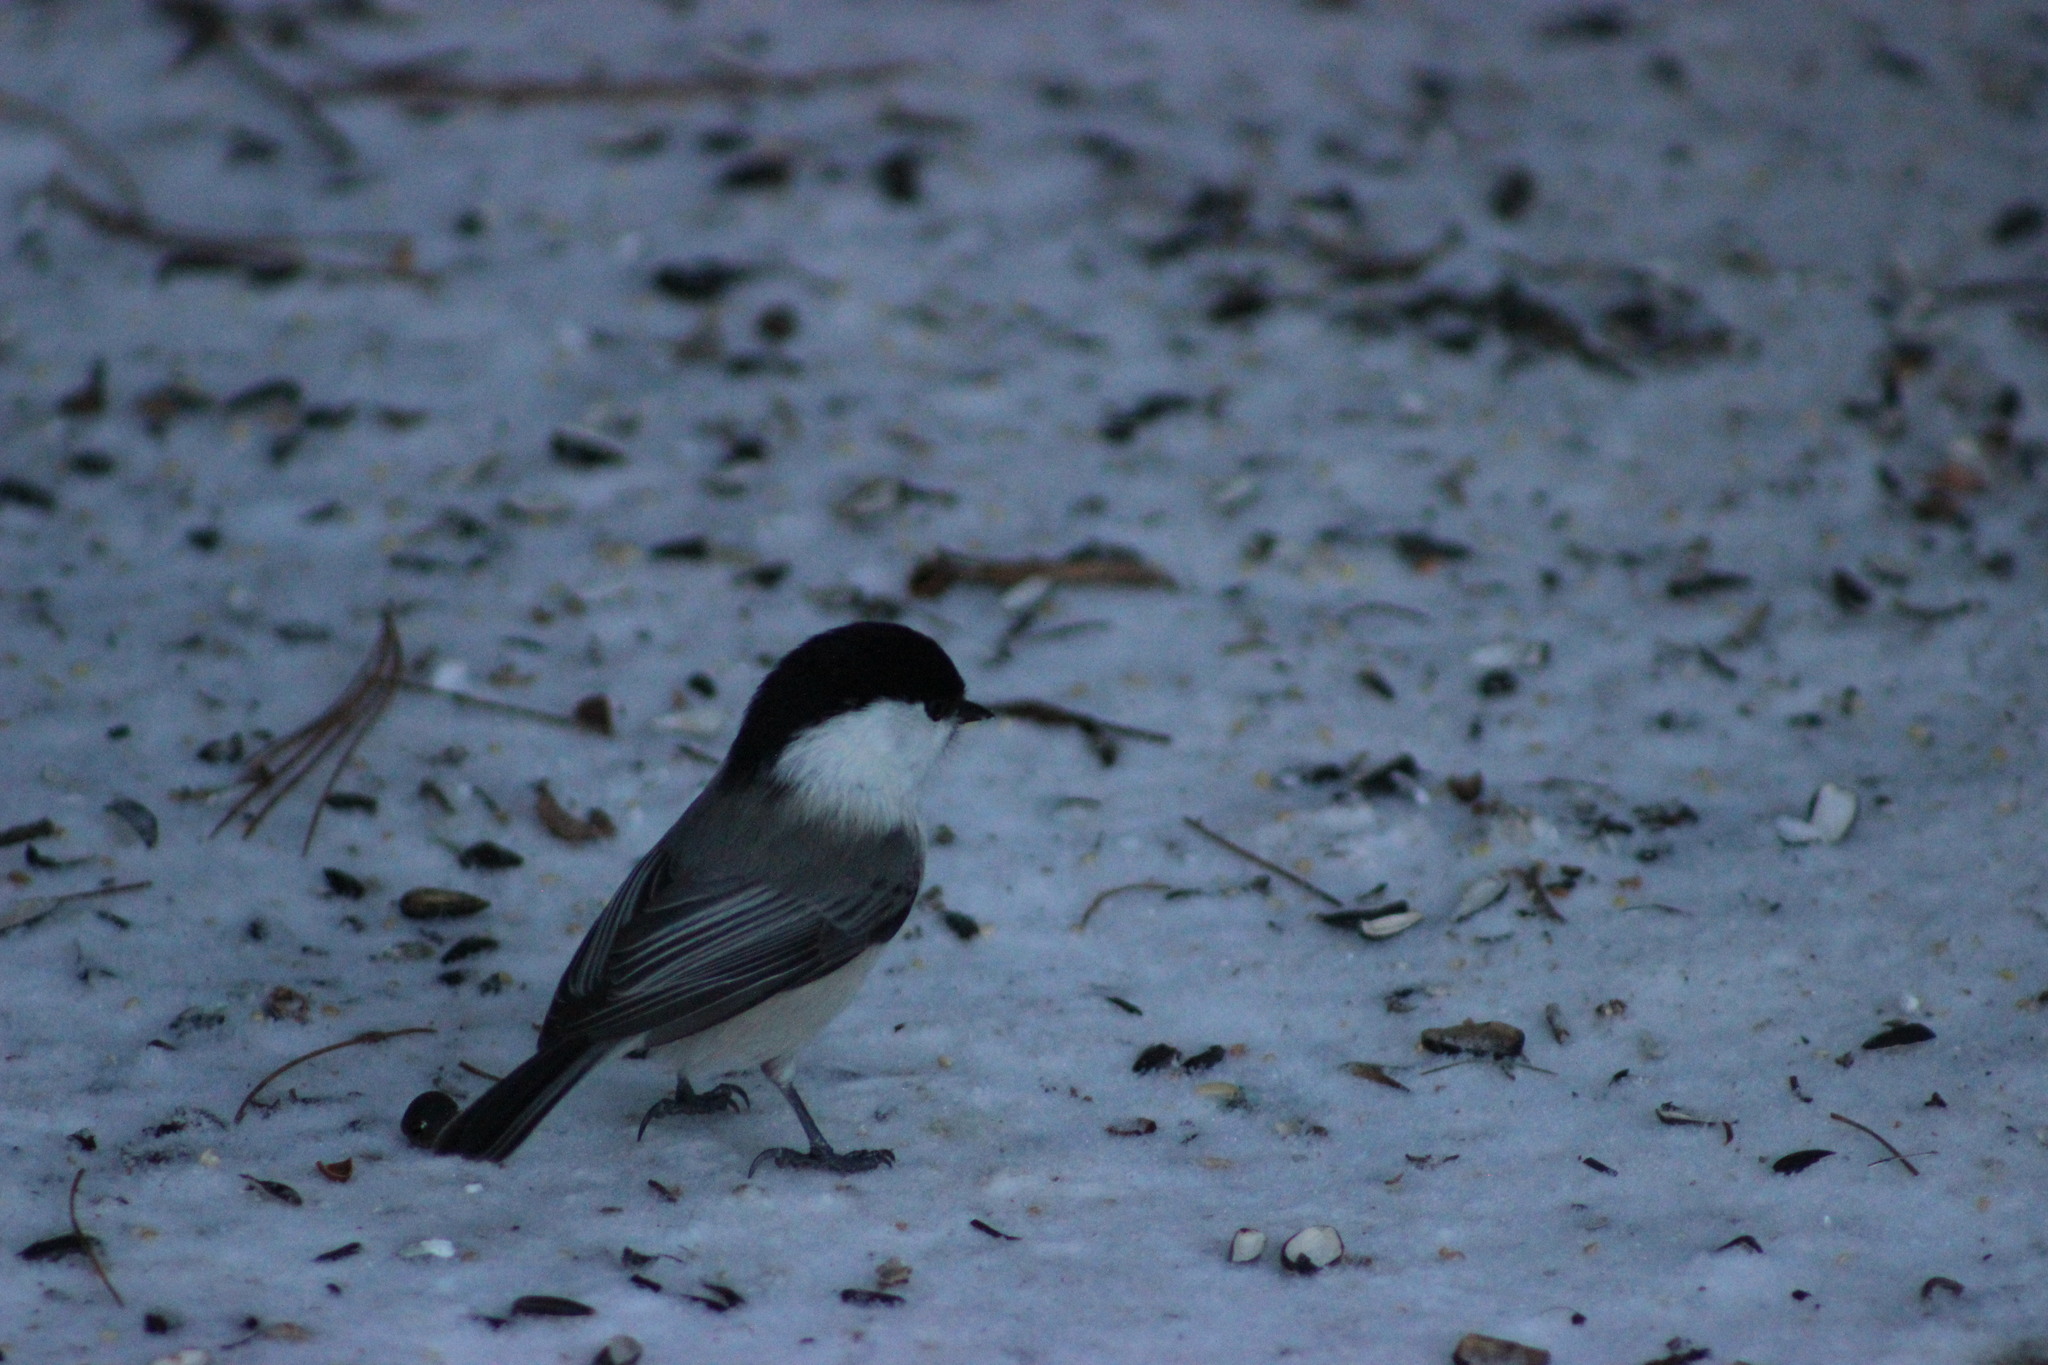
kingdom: Animalia
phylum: Chordata
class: Aves
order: Passeriformes
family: Paridae
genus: Poecile
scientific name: Poecile montanus
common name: Willow tit
